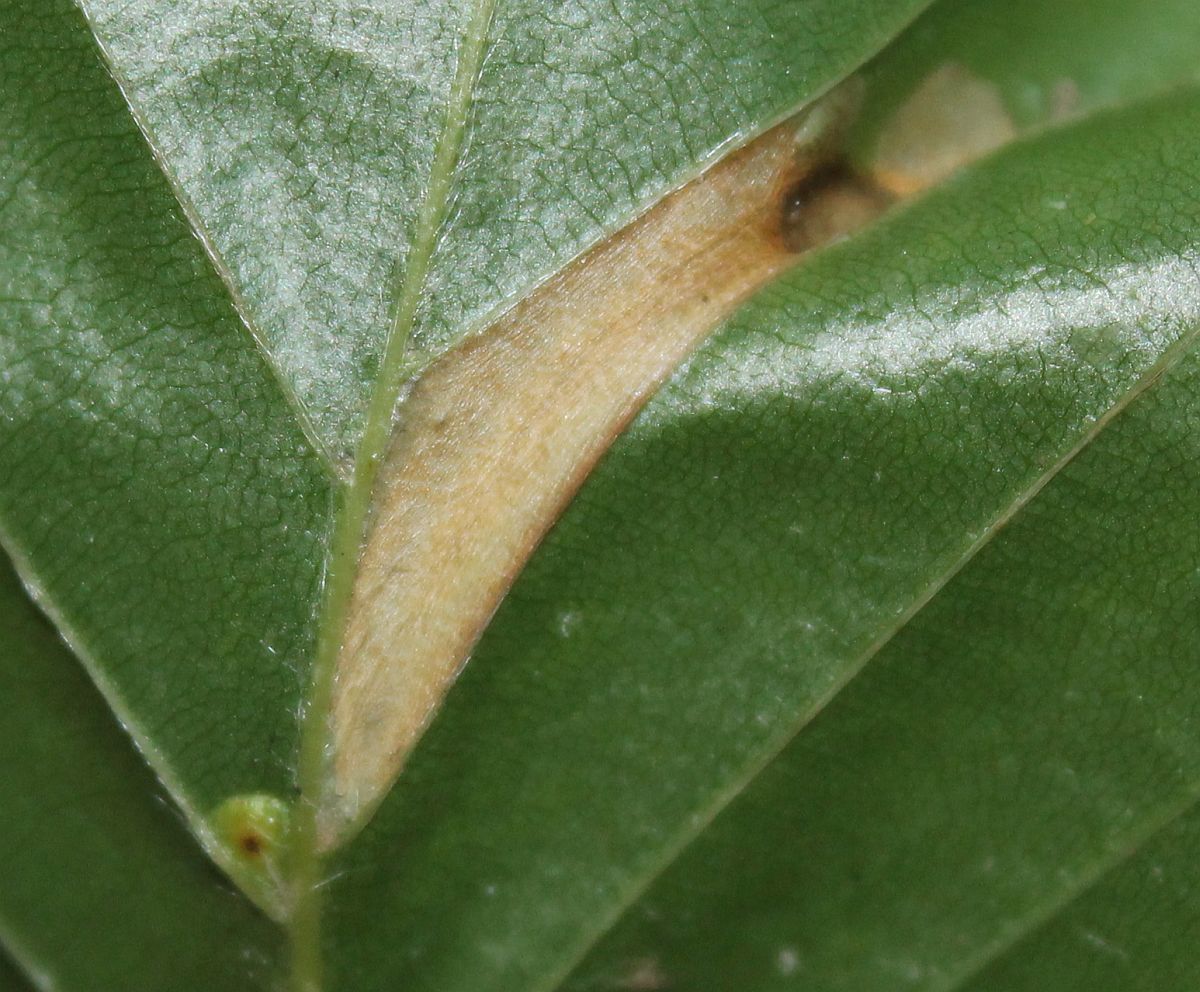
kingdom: Animalia
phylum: Arthropoda
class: Insecta
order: Lepidoptera
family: Gracillariidae
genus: Phyllonorycter
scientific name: Phyllonorycter maestingella
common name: Beech midget
